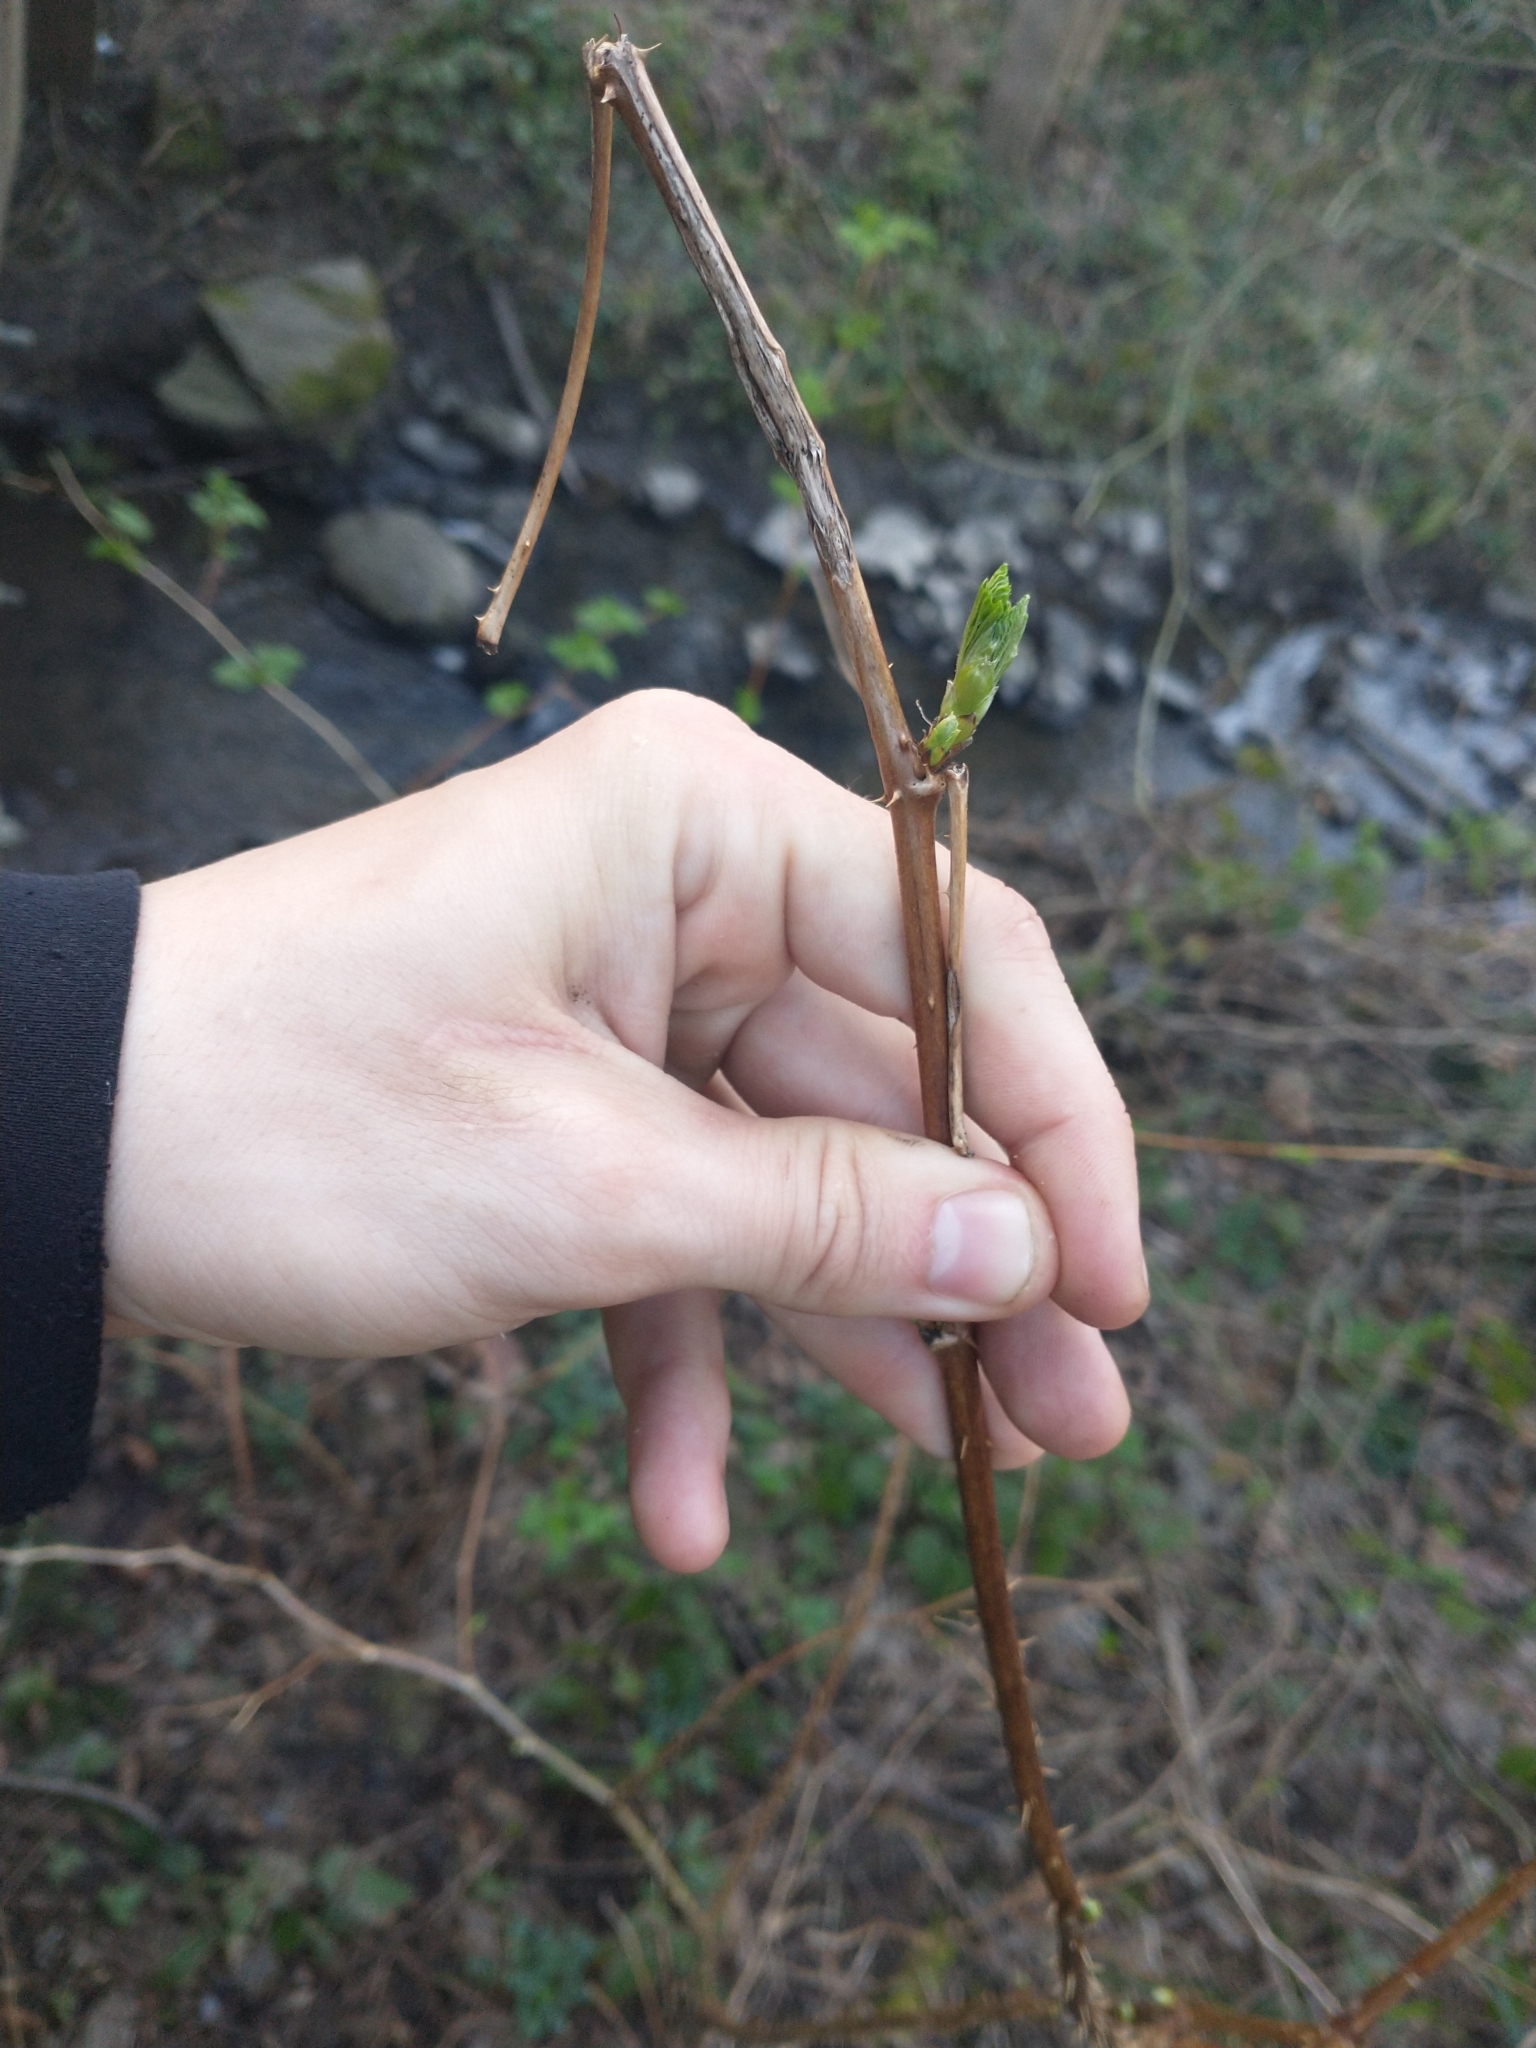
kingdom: Plantae
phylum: Tracheophyta
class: Magnoliopsida
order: Rosales
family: Rosaceae
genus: Rubus
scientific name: Rubus spectabilis
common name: Salmonberry
